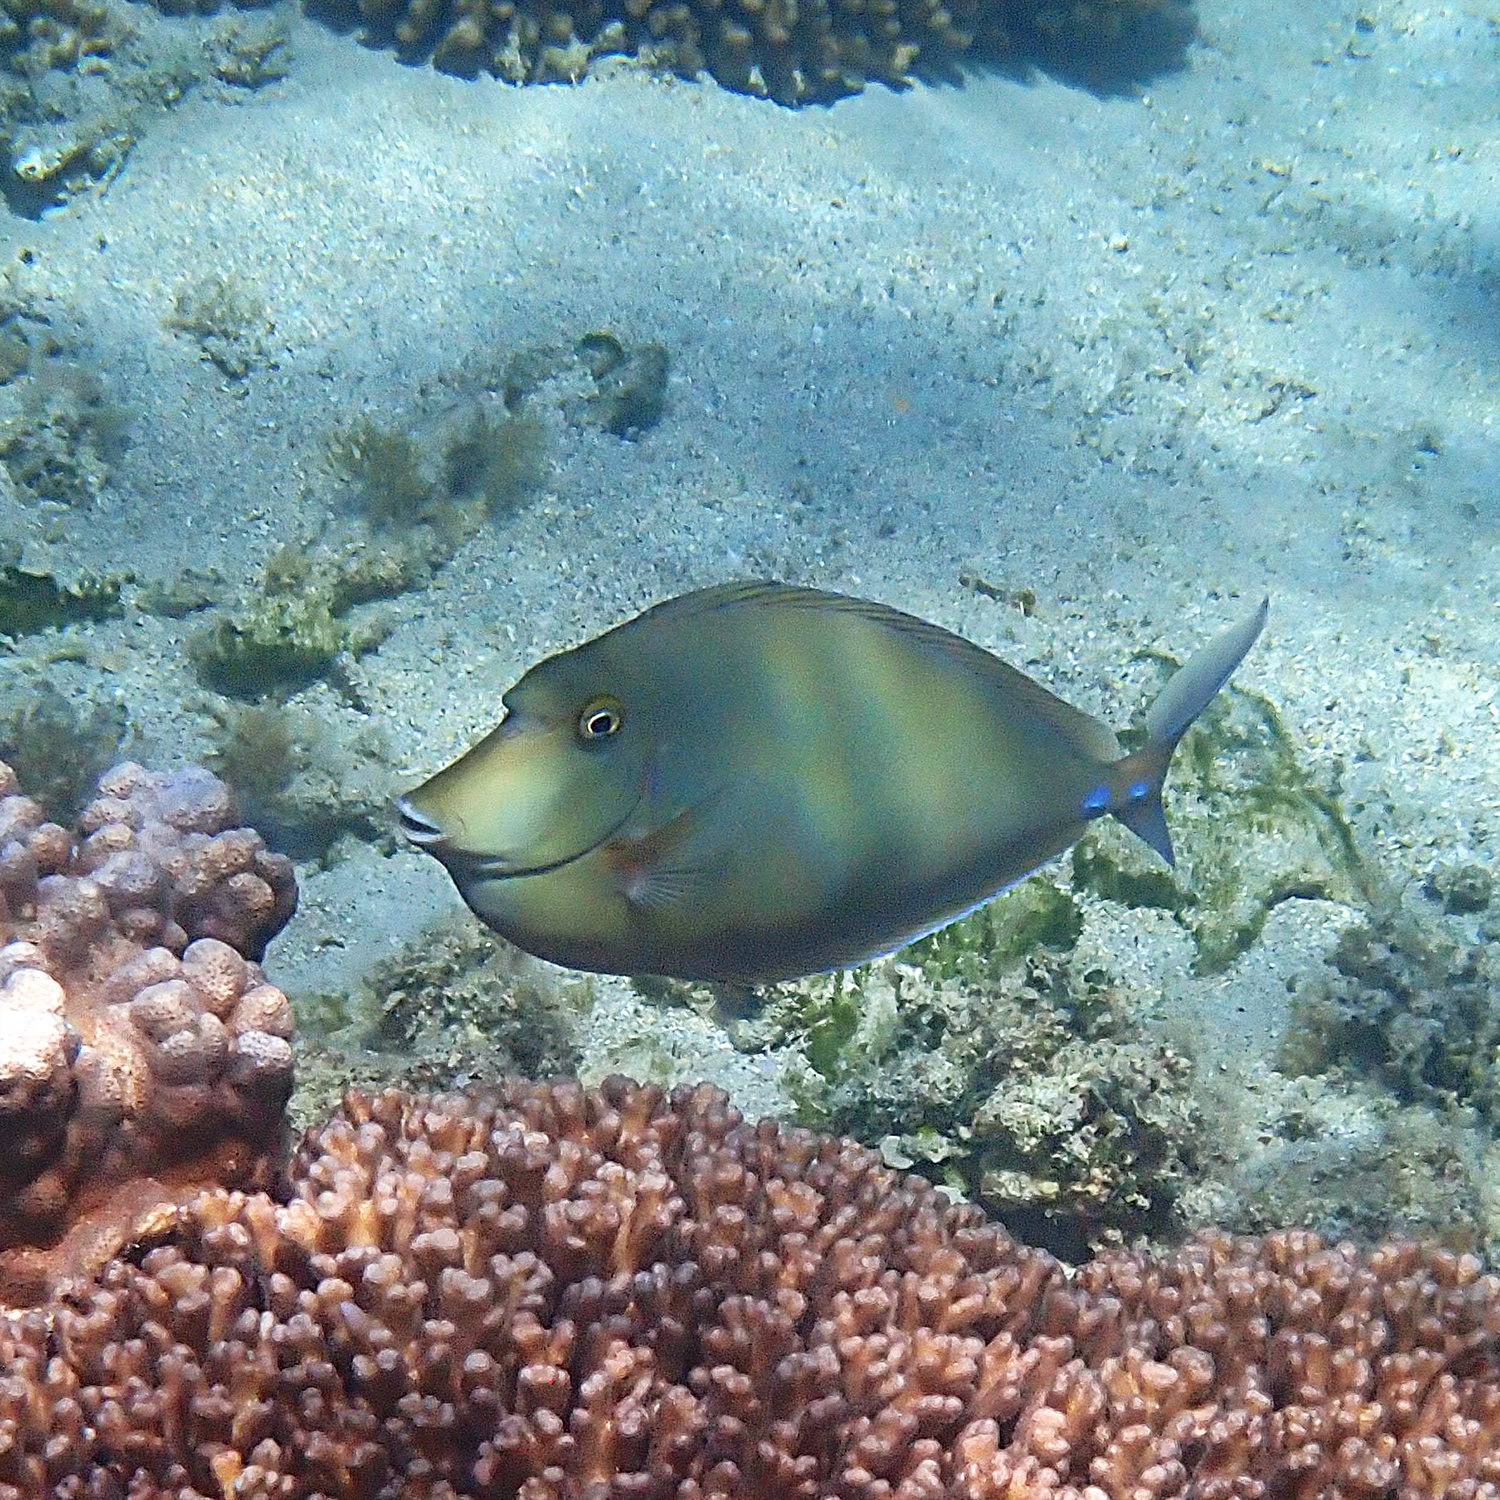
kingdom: Animalia
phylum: Chordata
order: Perciformes
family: Acanthuridae
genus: Naso
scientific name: Naso unicornis
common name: Bluespine unicornfish
